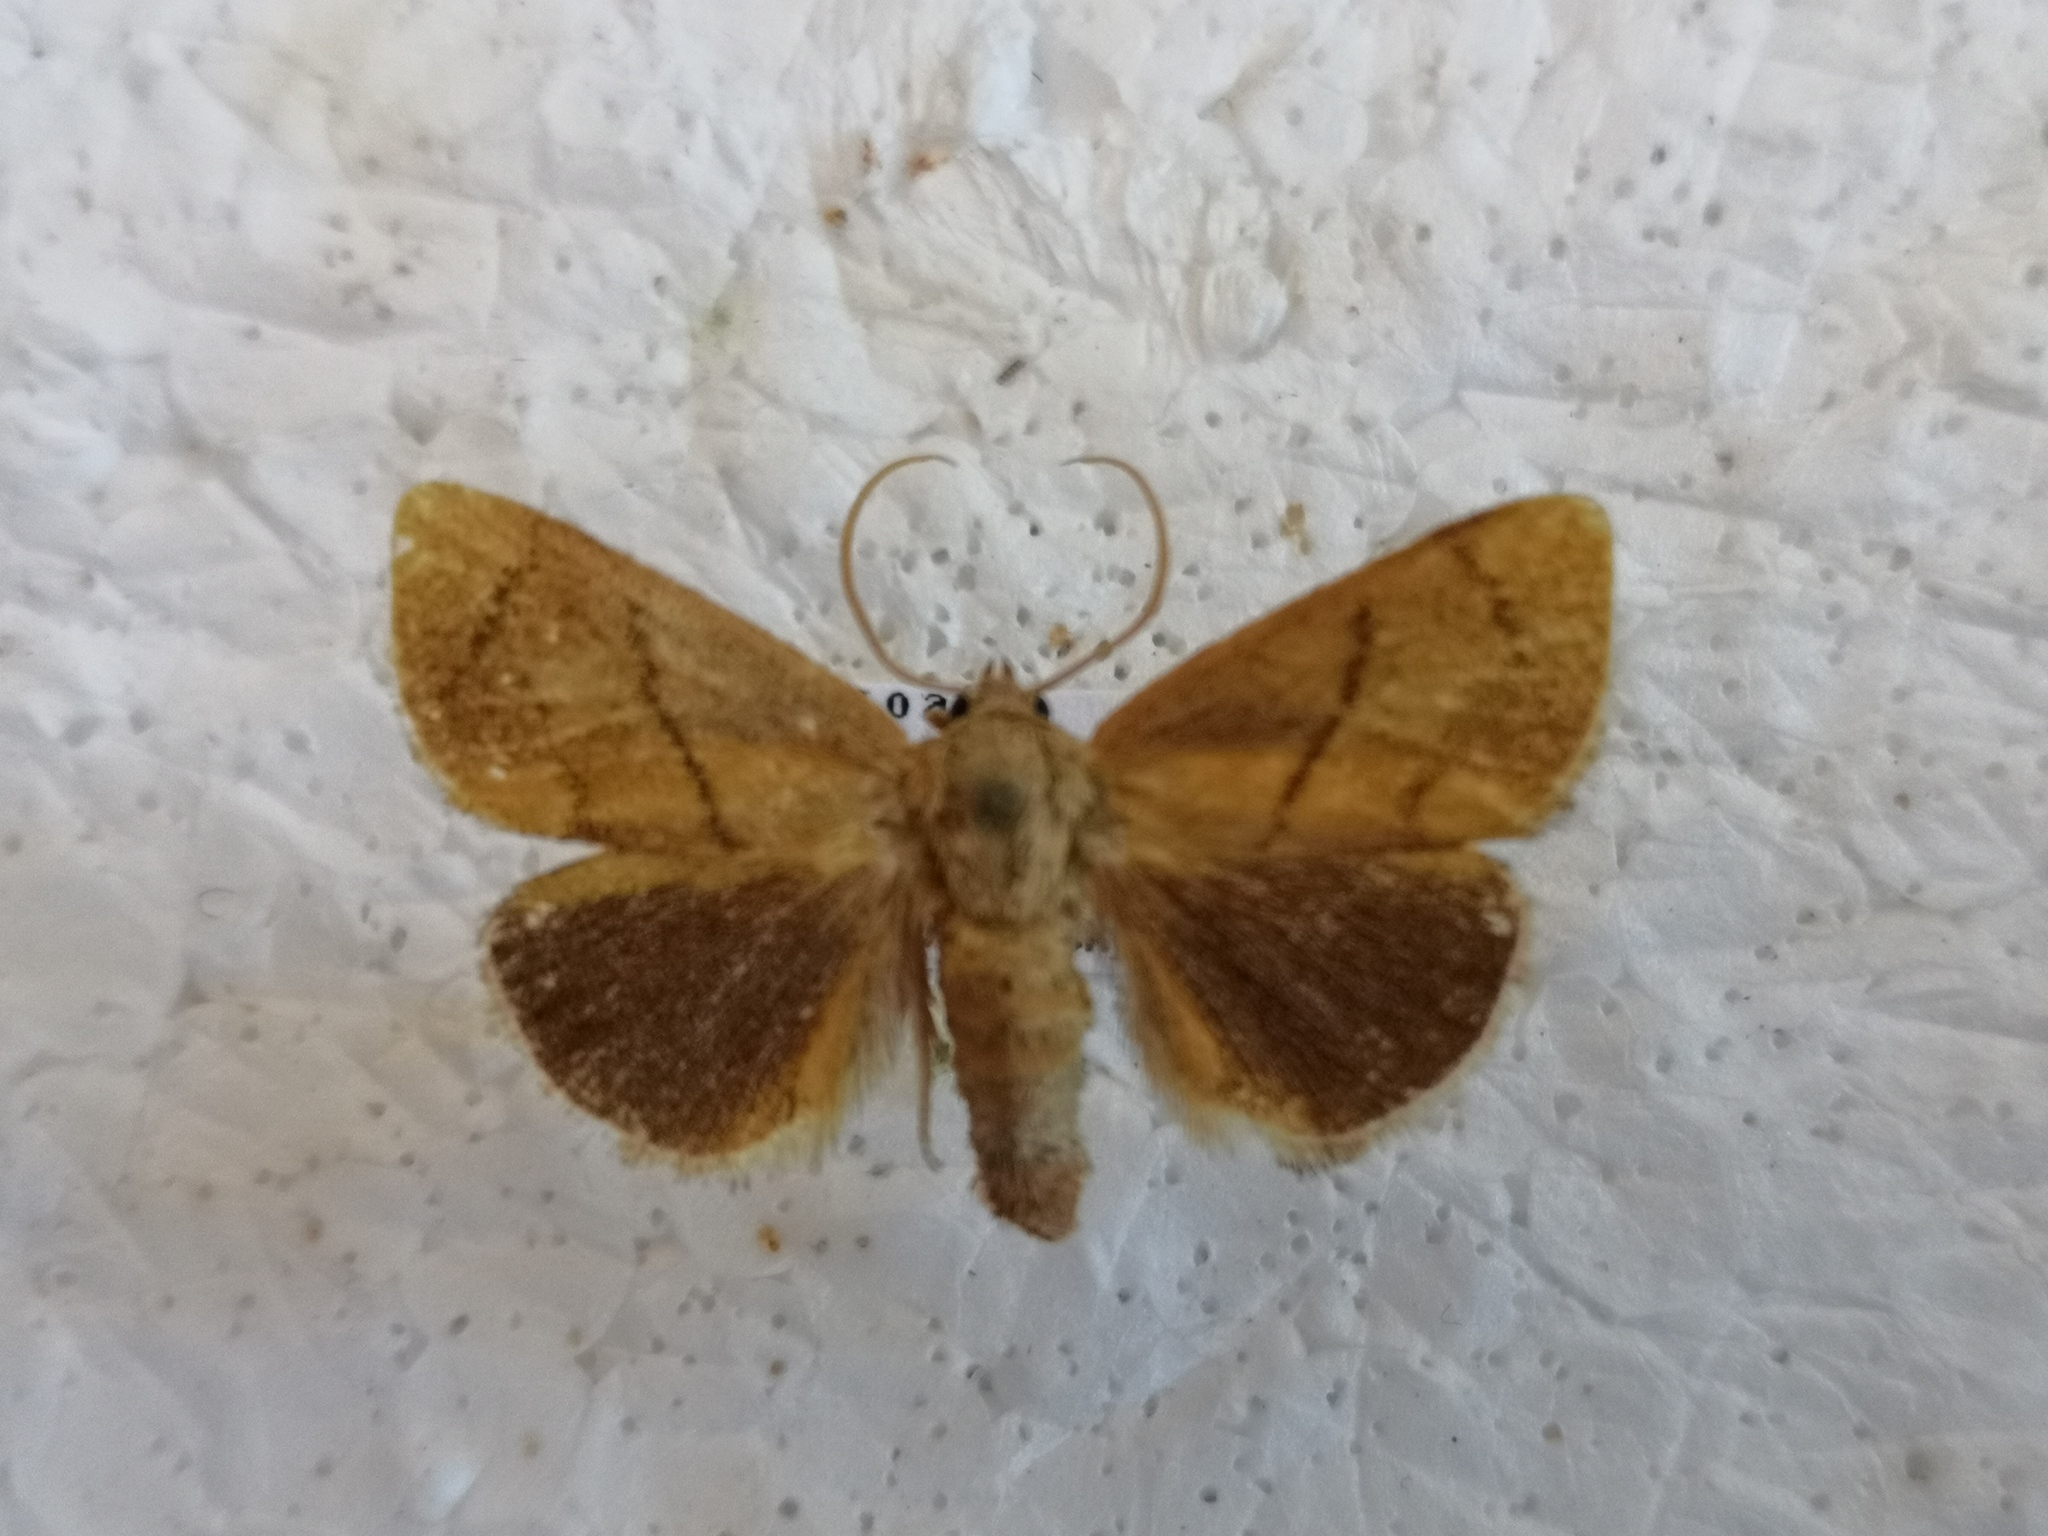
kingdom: Animalia
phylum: Arthropoda
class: Insecta
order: Lepidoptera
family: Limacodidae
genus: Apoda
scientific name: Apoda limacodes
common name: Festoon
